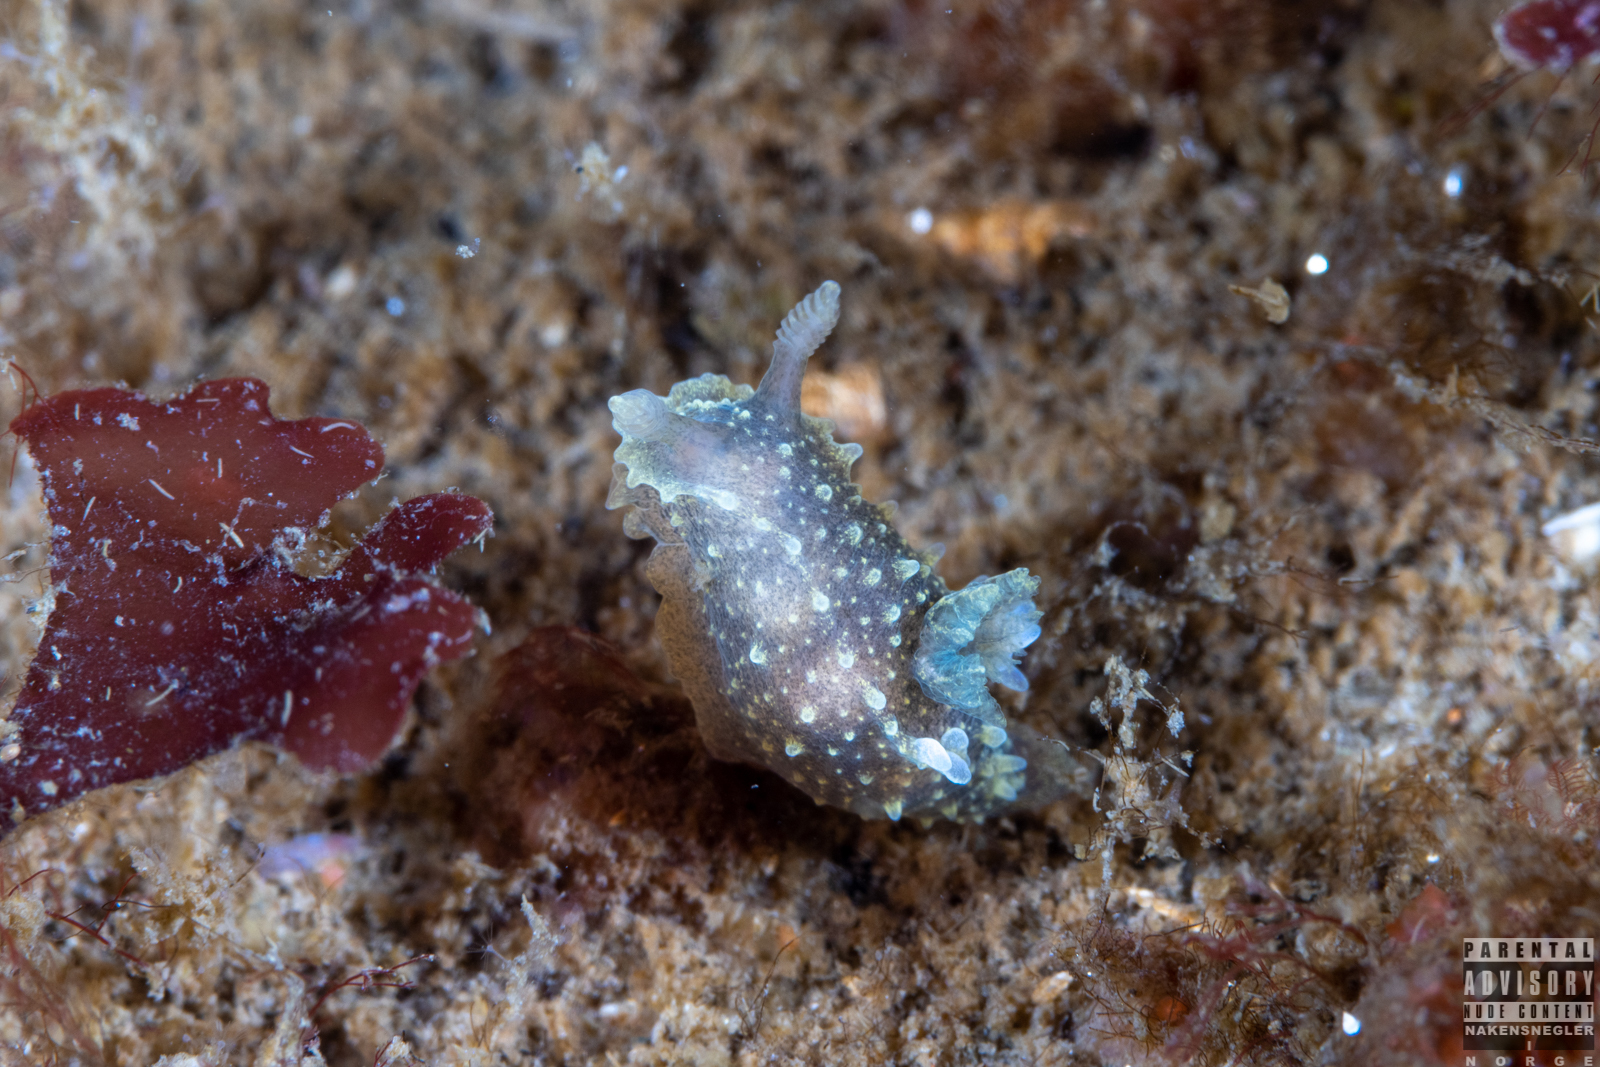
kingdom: Animalia
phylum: Mollusca
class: Gastropoda
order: Nudibranchia
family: Polyceridae
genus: Palio
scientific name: Palio dubia
